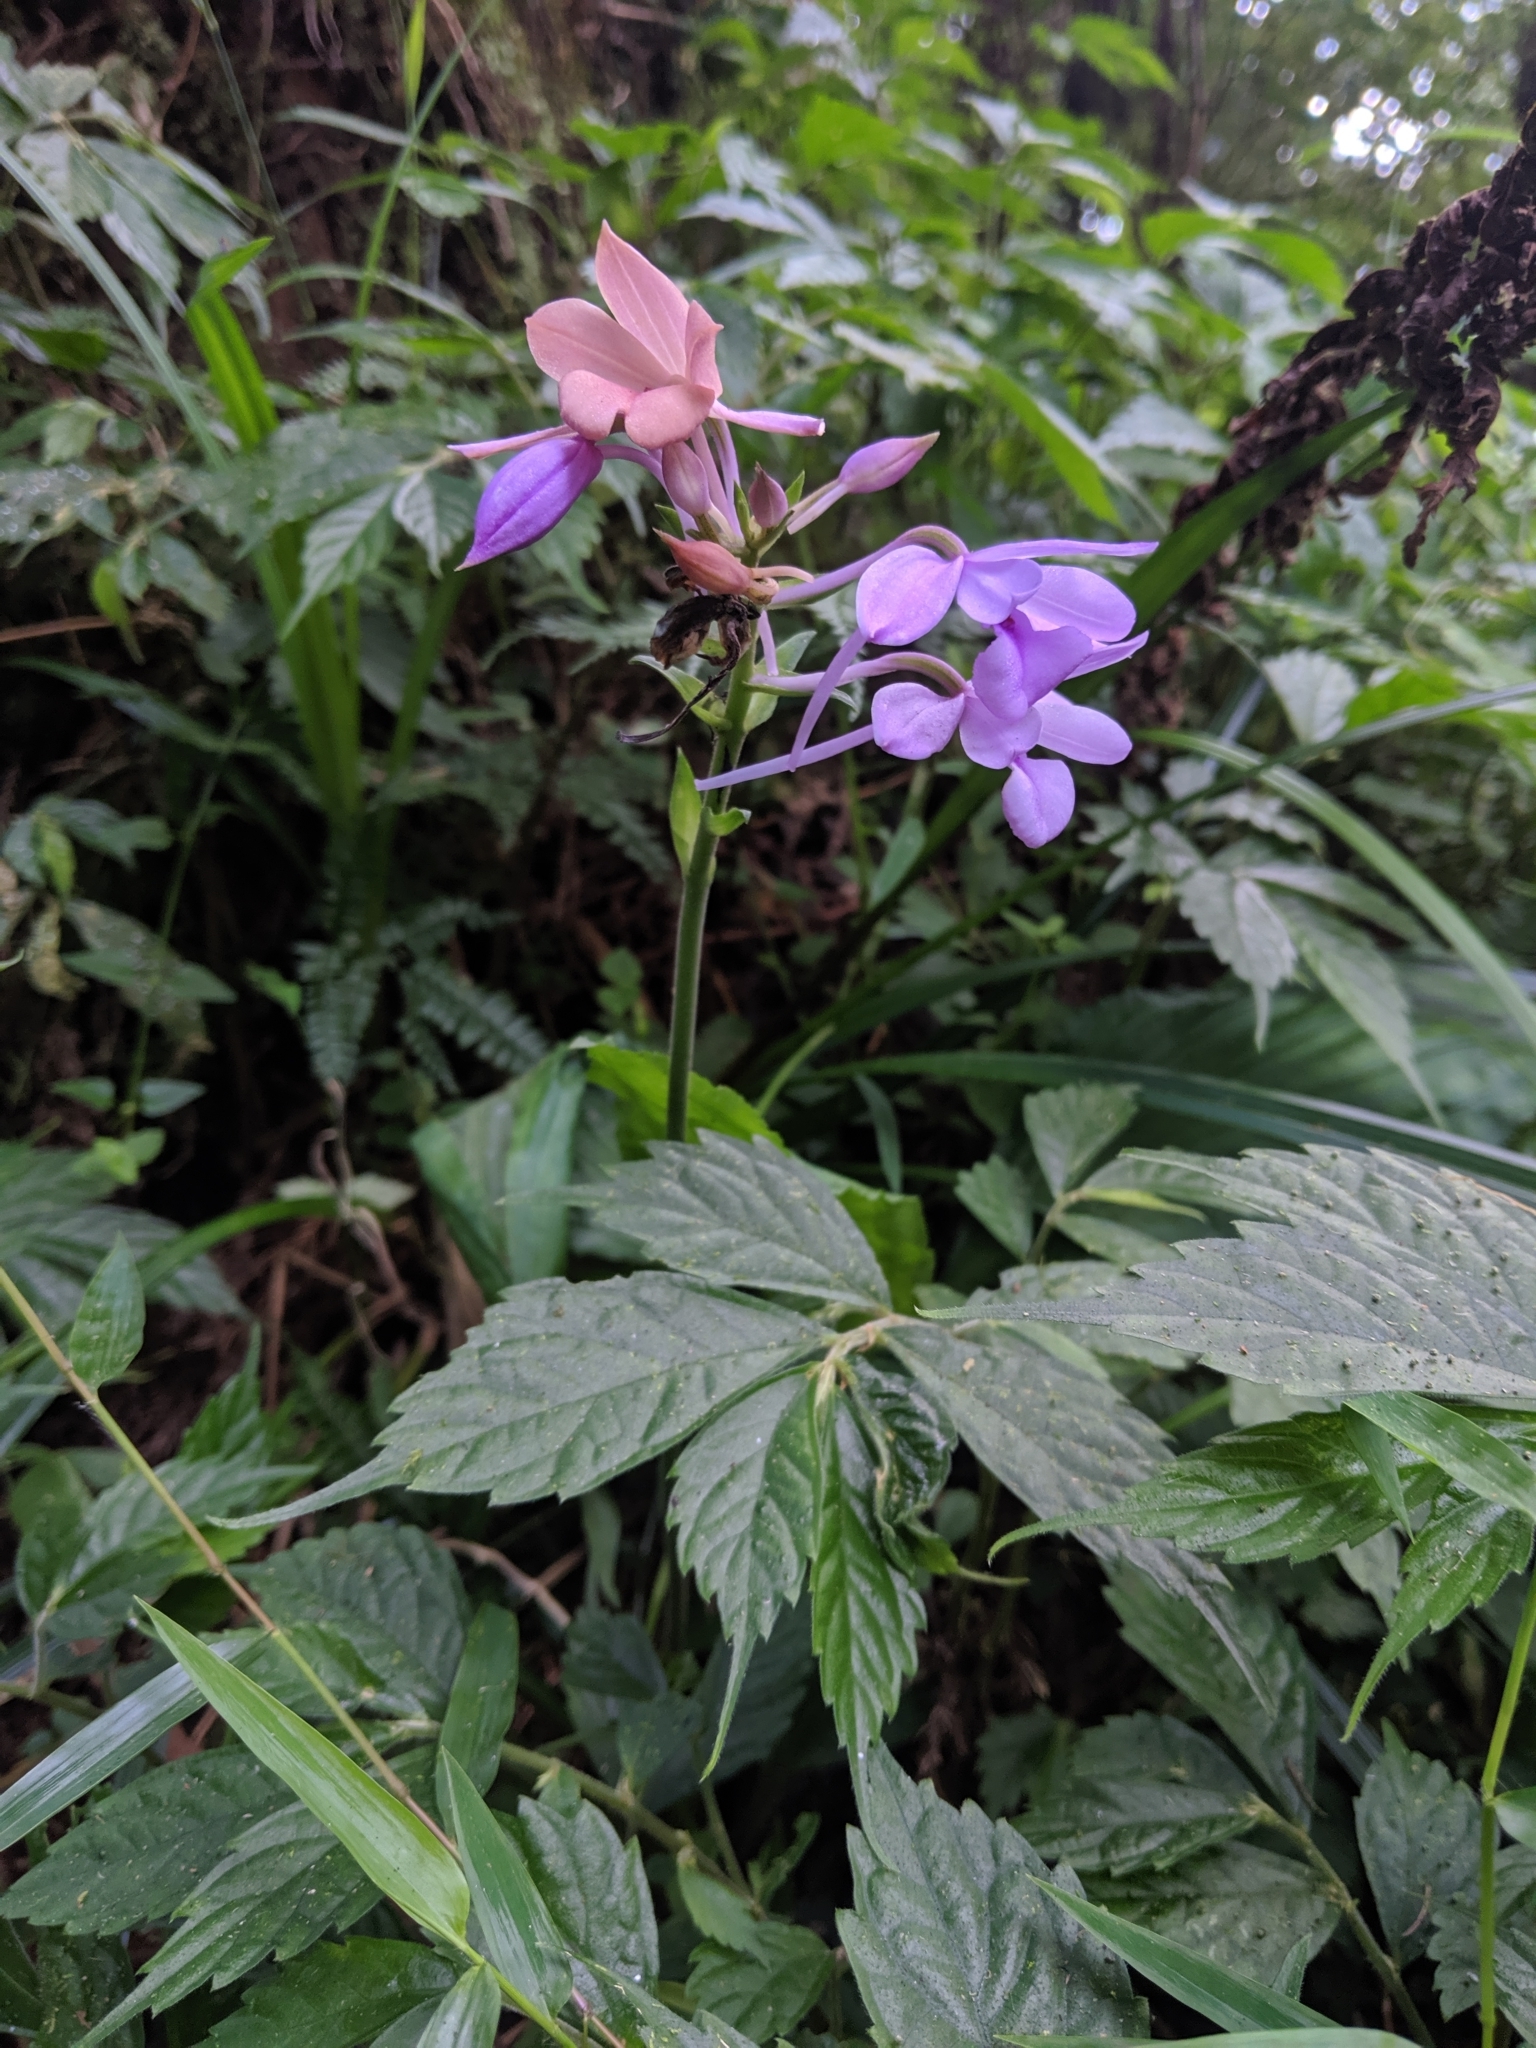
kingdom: Plantae
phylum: Tracheophyta
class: Liliopsida
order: Asparagales
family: Orchidaceae
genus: Calanthe
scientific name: Calanthe masuca
